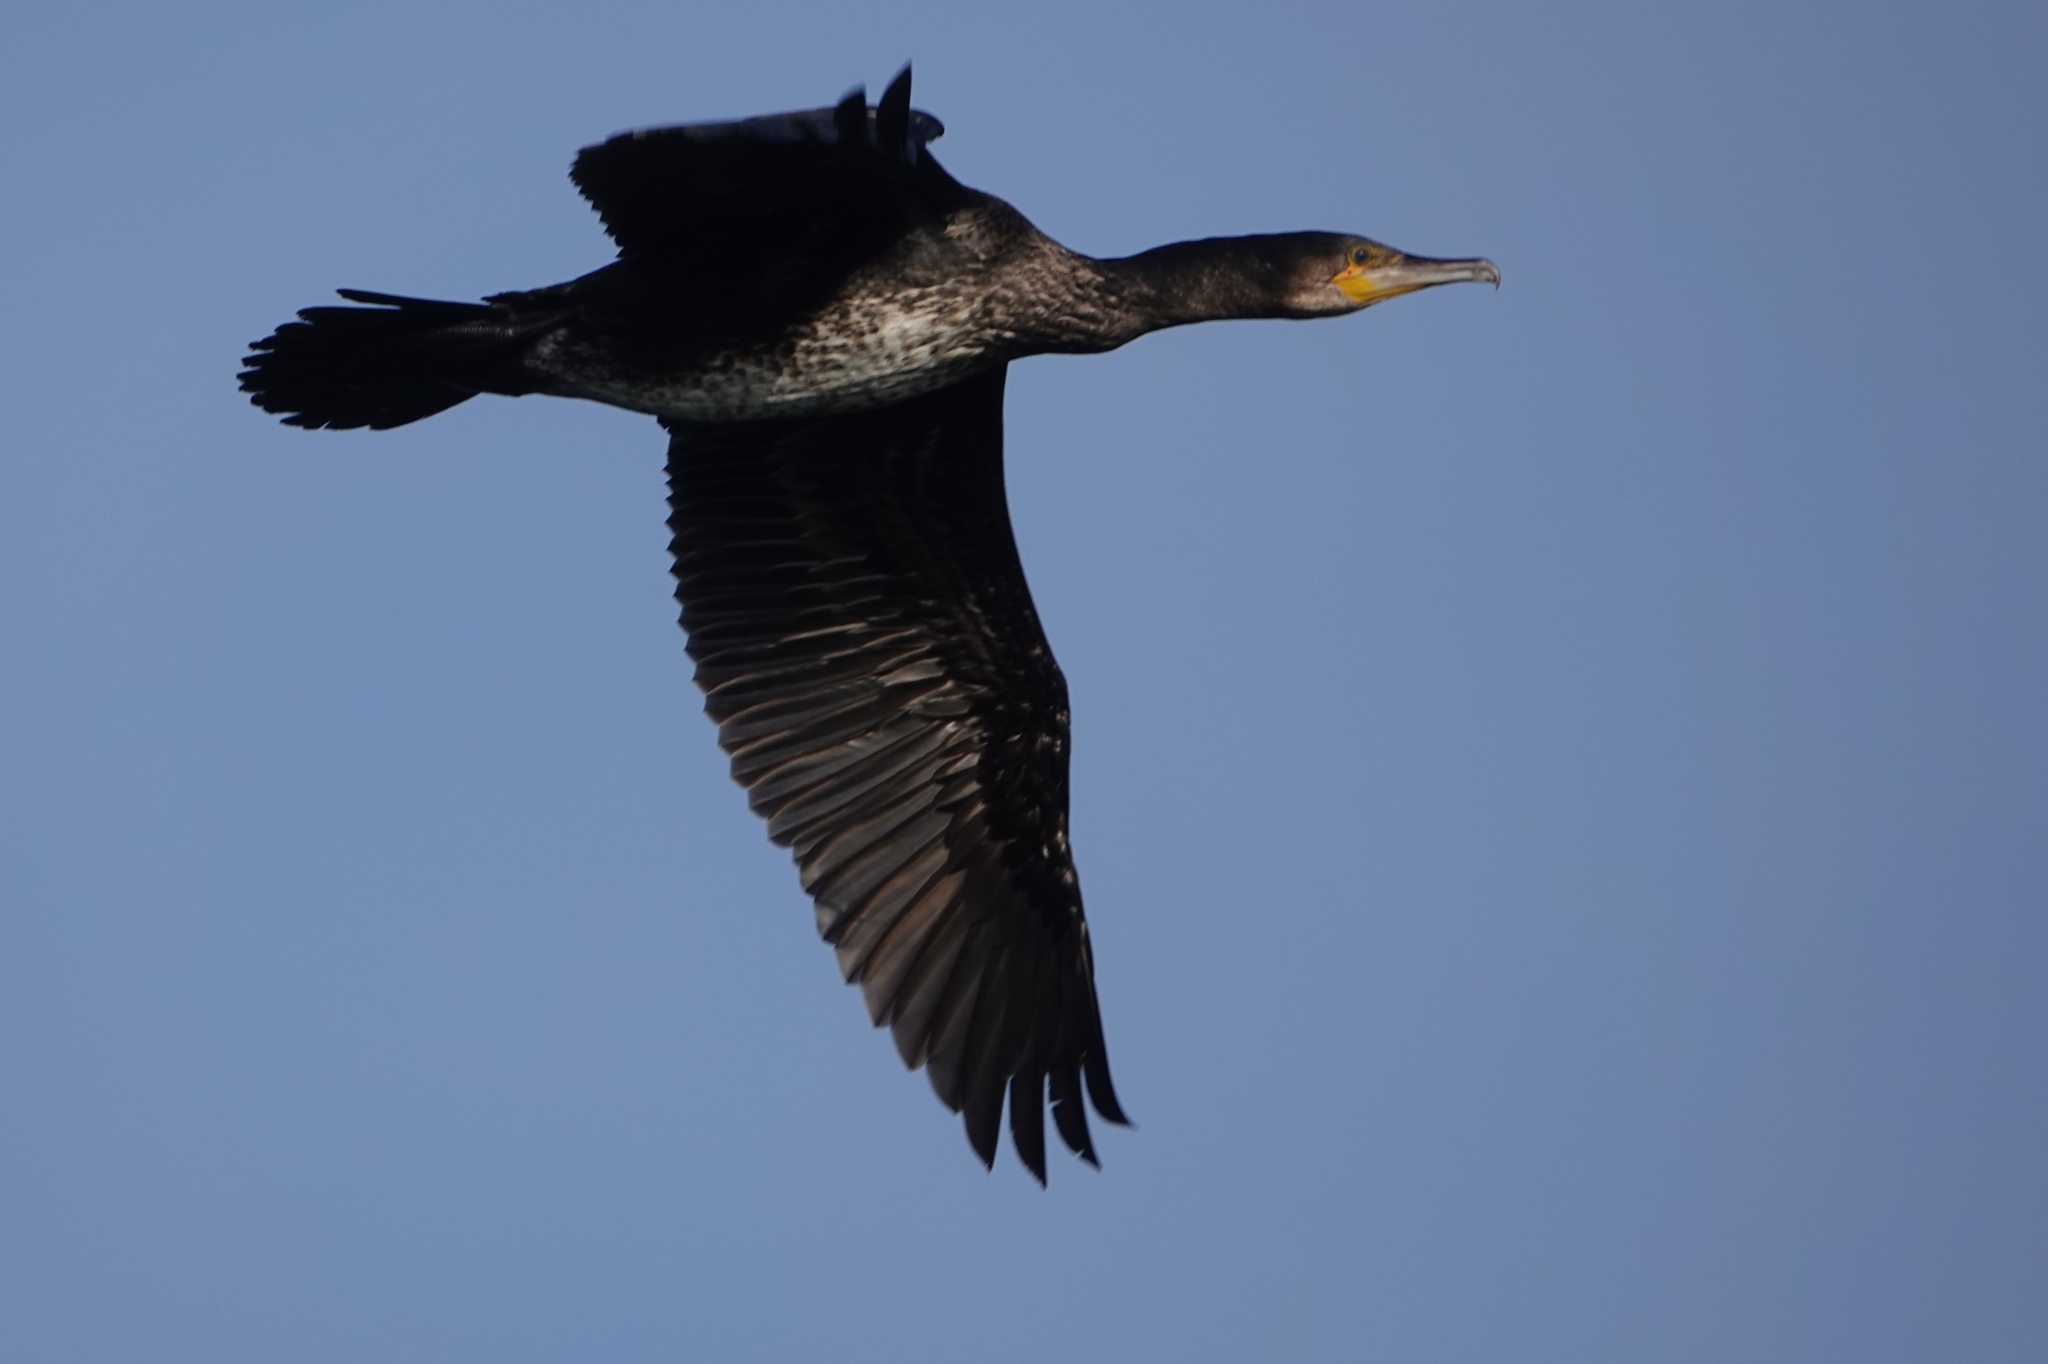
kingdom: Animalia
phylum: Chordata
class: Aves
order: Suliformes
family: Phalacrocoracidae
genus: Phalacrocorax
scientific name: Phalacrocorax carbo
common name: Great cormorant
